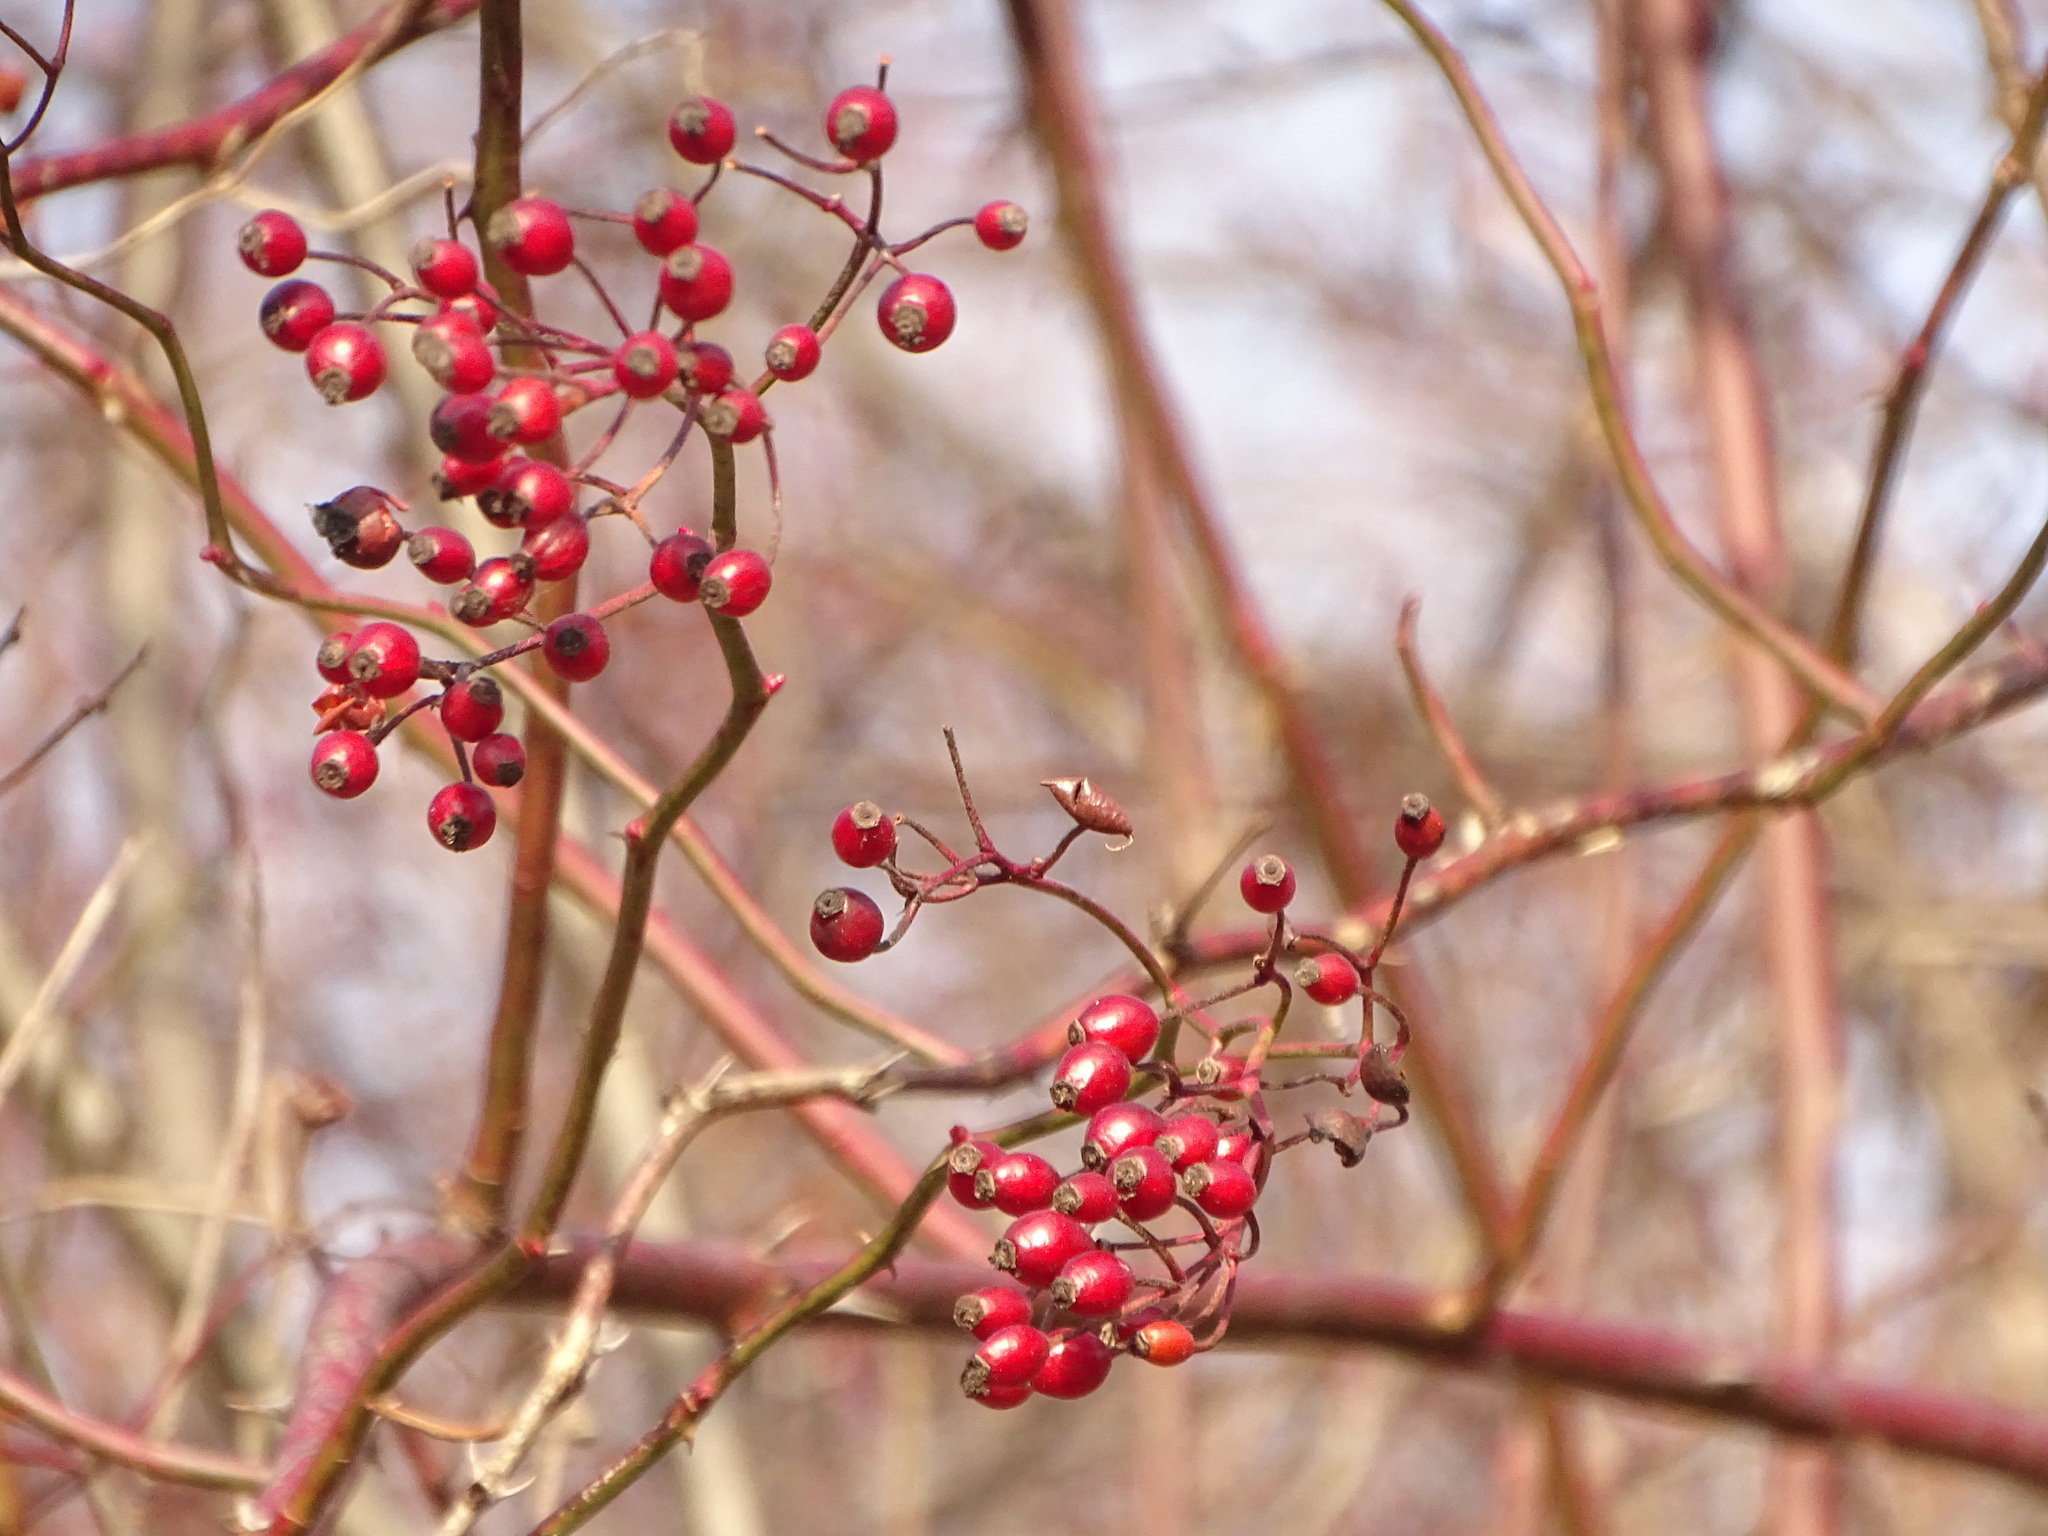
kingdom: Plantae
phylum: Tracheophyta
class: Magnoliopsida
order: Rosales
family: Rosaceae
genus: Rosa
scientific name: Rosa multiflora
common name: Multiflora rose
